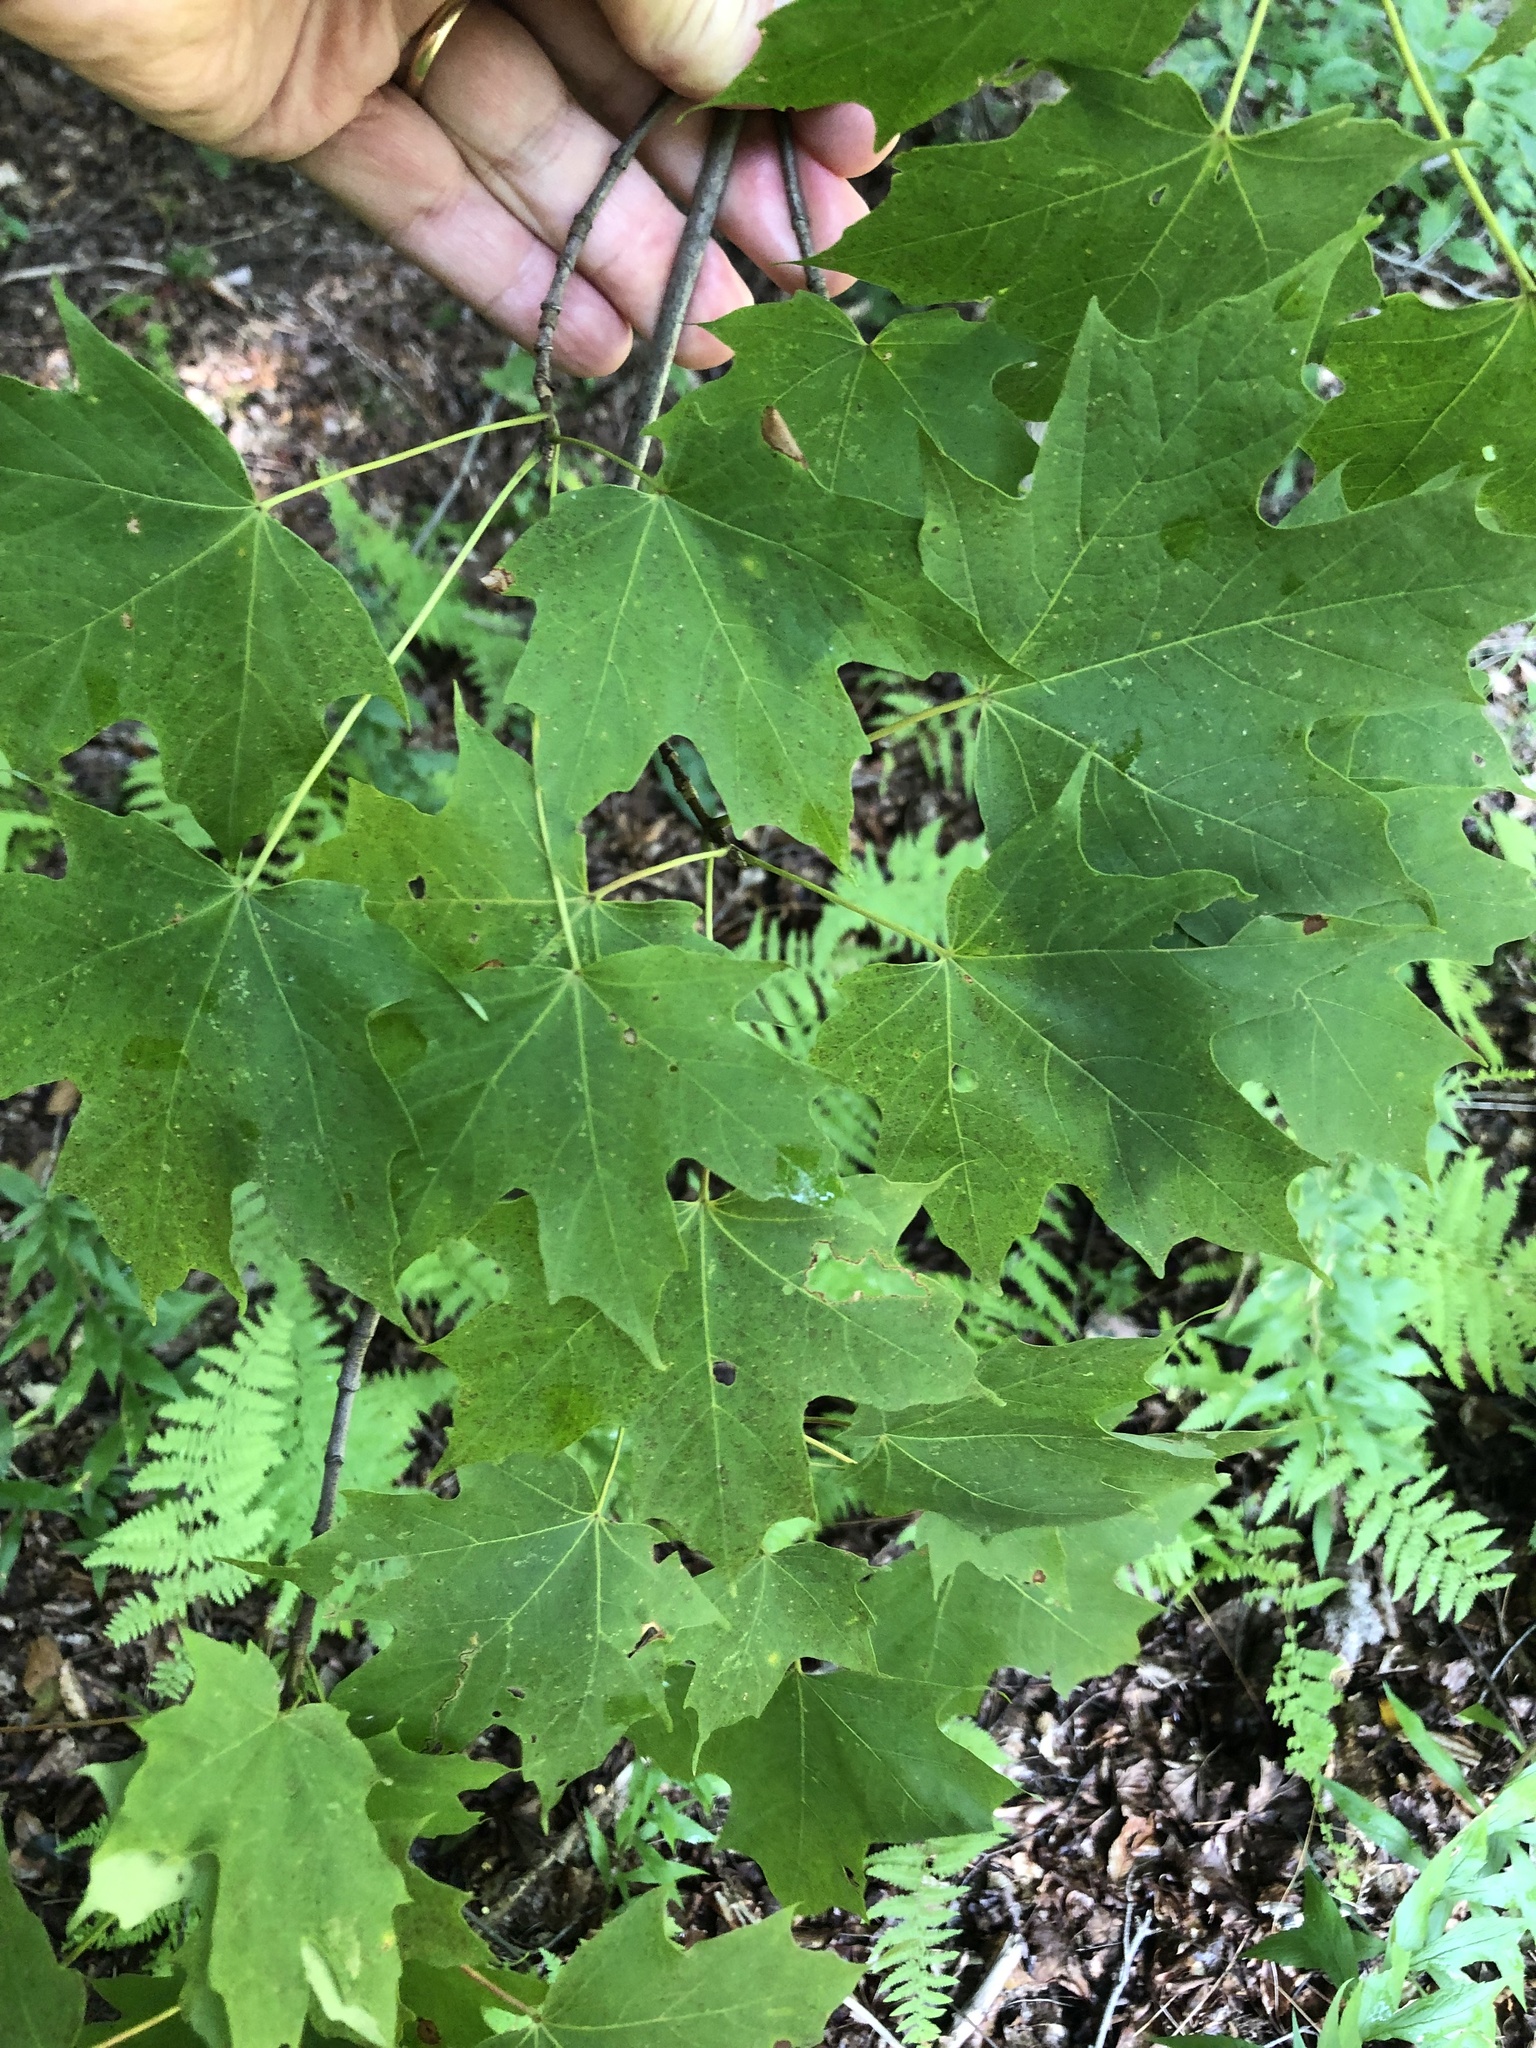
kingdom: Plantae
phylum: Tracheophyta
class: Magnoliopsida
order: Sapindales
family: Sapindaceae
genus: Acer
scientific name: Acer saccharum
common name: Sugar maple
